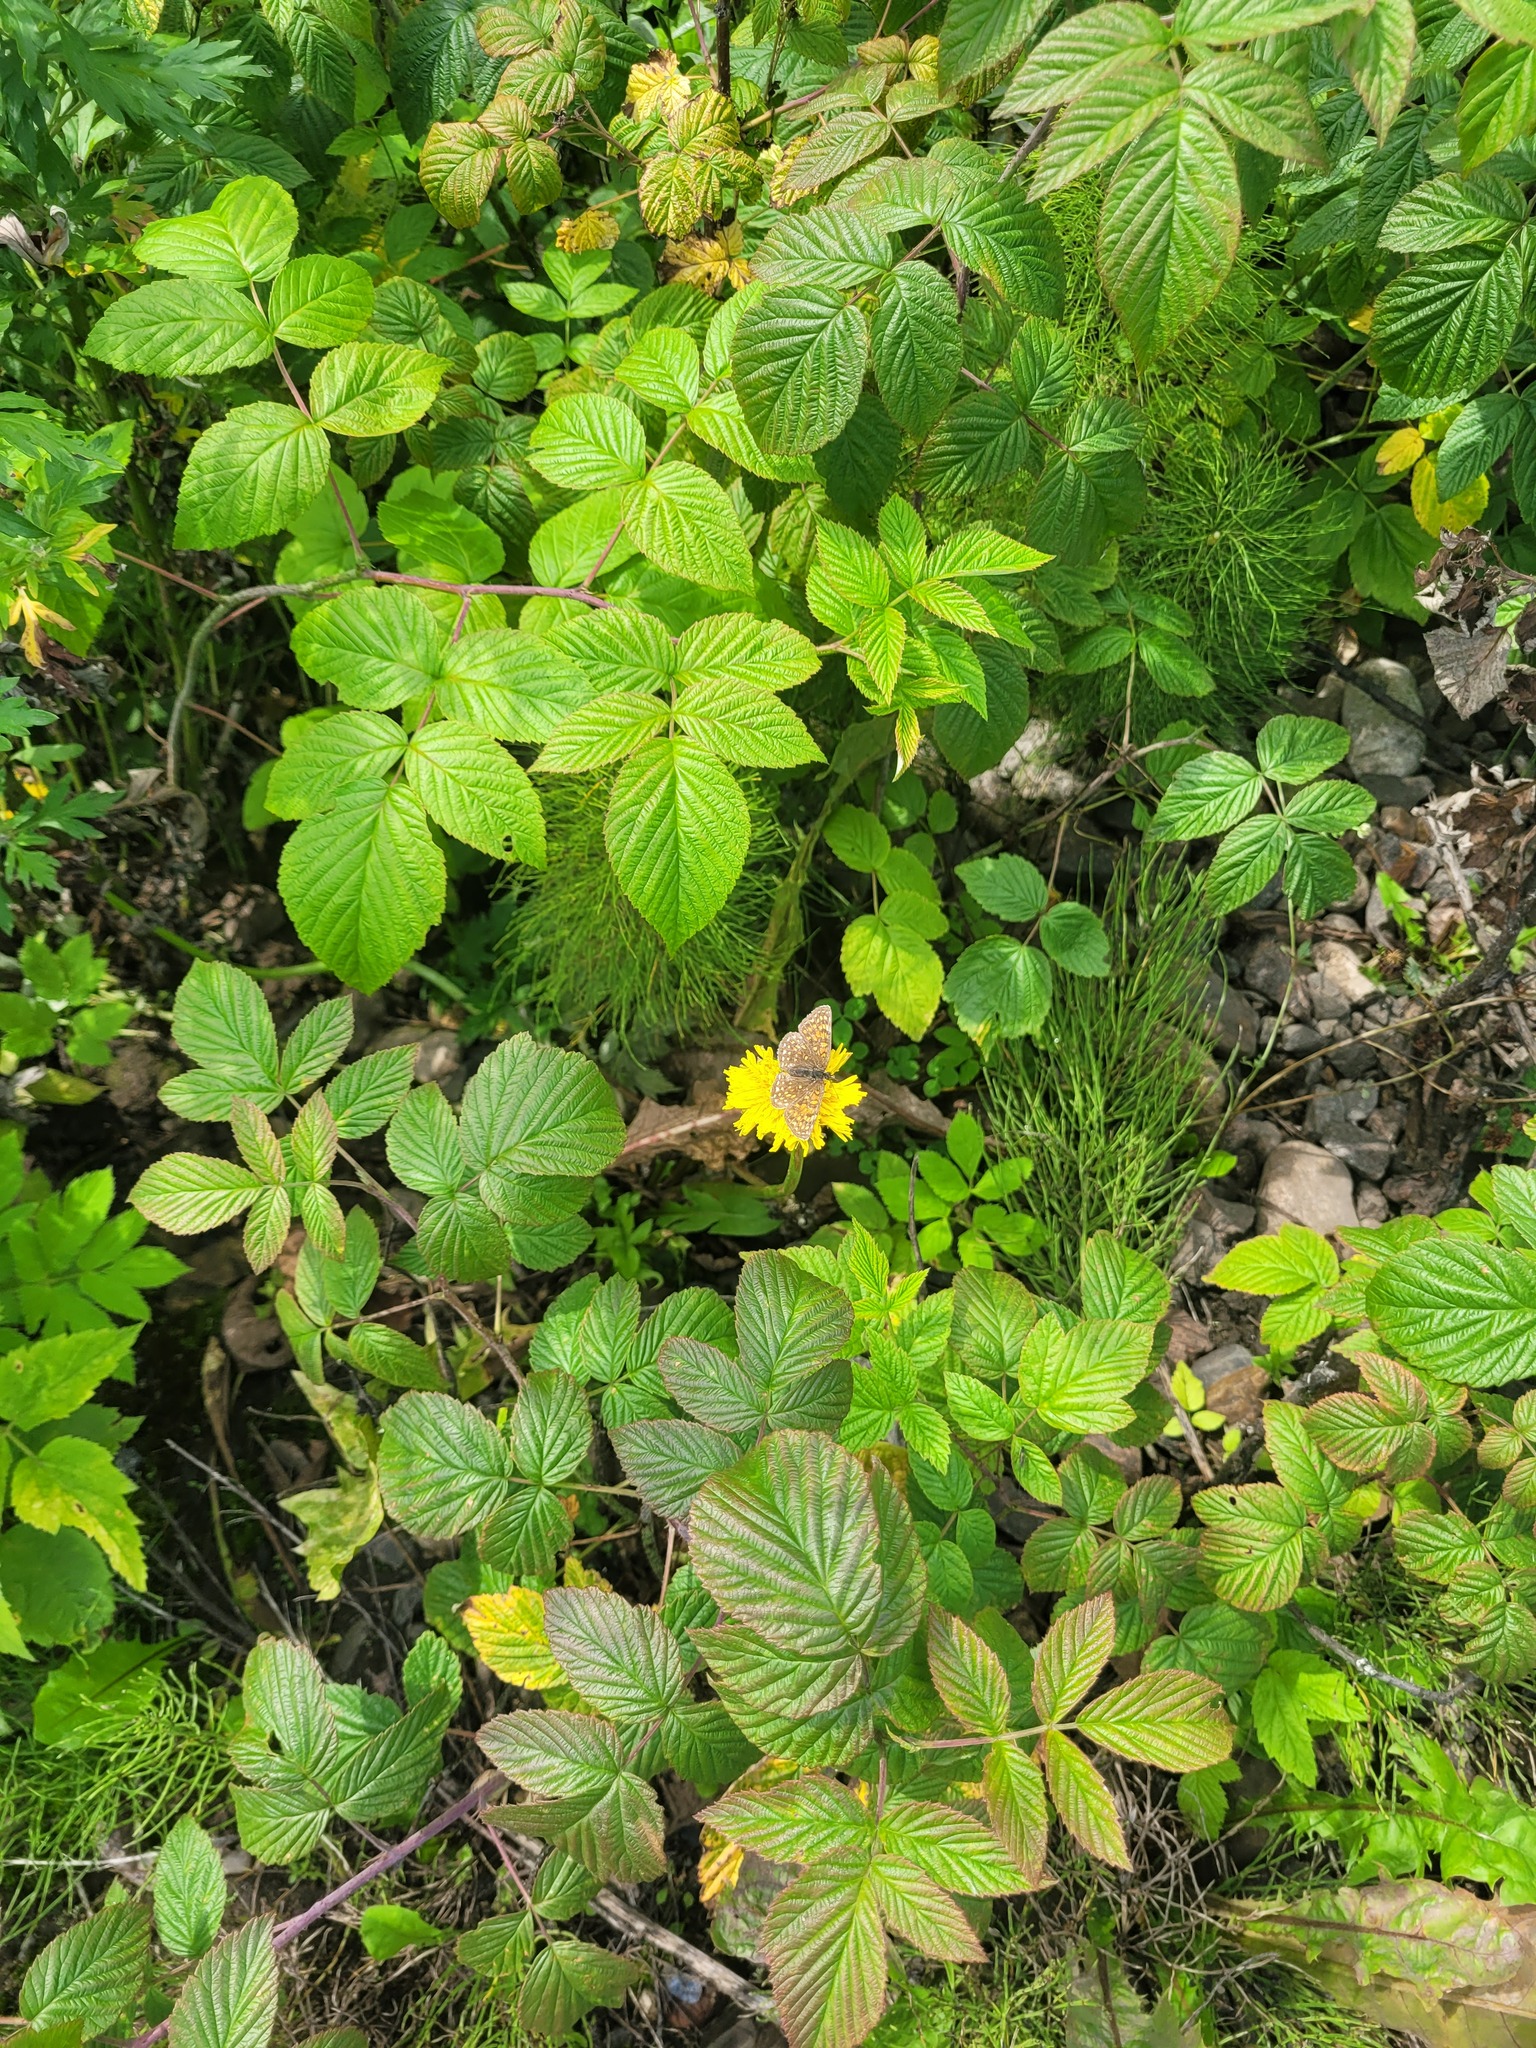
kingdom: Plantae
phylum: Tracheophyta
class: Magnoliopsida
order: Rosales
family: Rosaceae
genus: Rubus
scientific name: Rubus idaeus
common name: Raspberry
